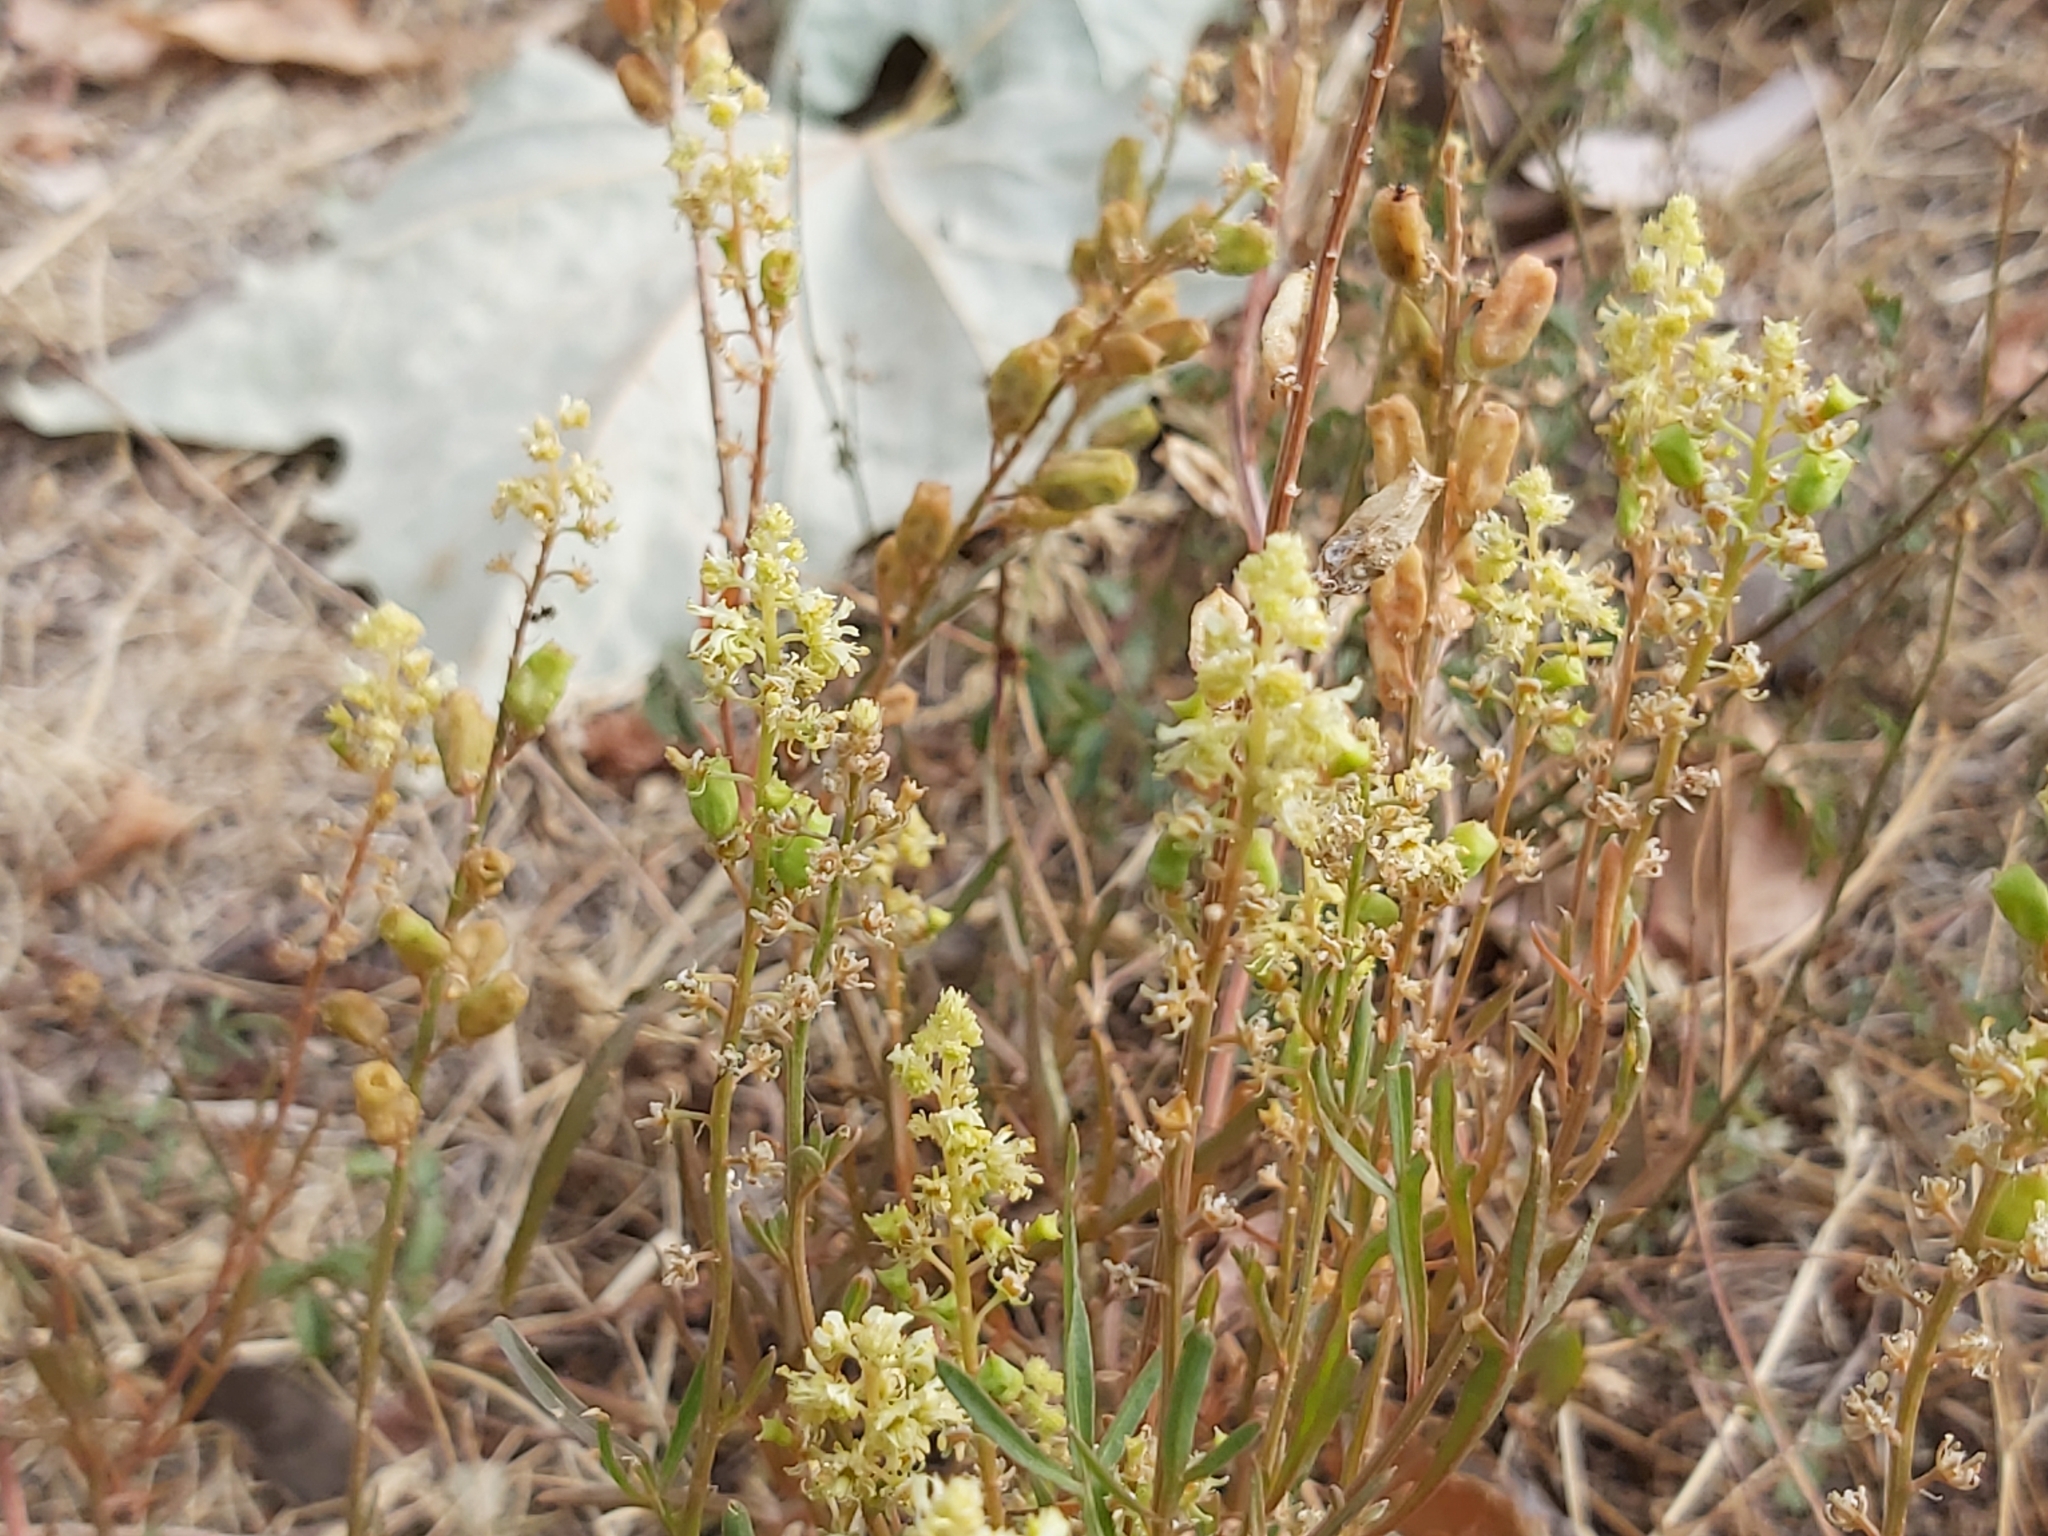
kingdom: Plantae
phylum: Tracheophyta
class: Magnoliopsida
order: Brassicales
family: Resedaceae
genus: Reseda
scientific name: Reseda lutea
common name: Wild mignonette
